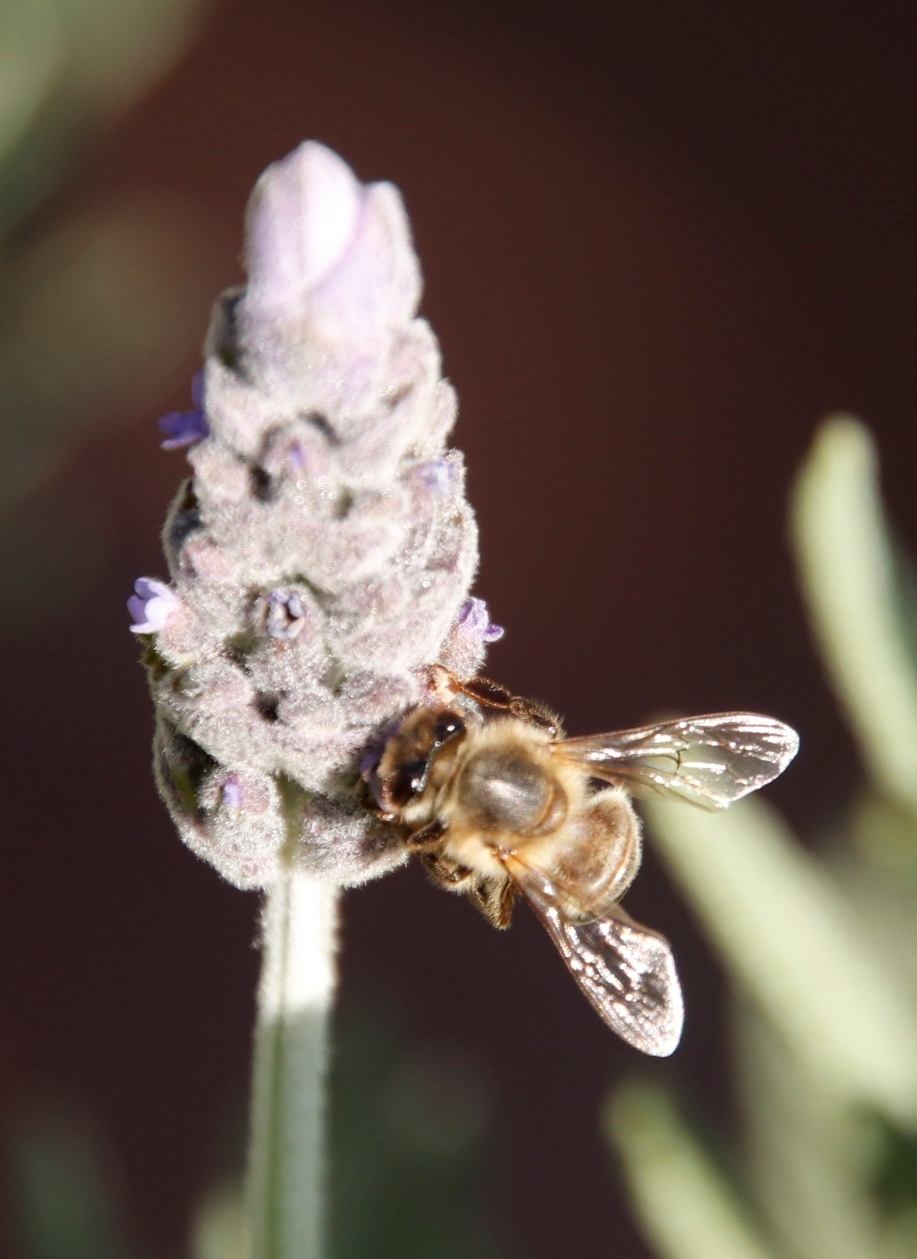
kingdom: Animalia
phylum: Arthropoda
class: Insecta
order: Hymenoptera
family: Apidae
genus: Apis
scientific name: Apis mellifera
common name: Honey bee
